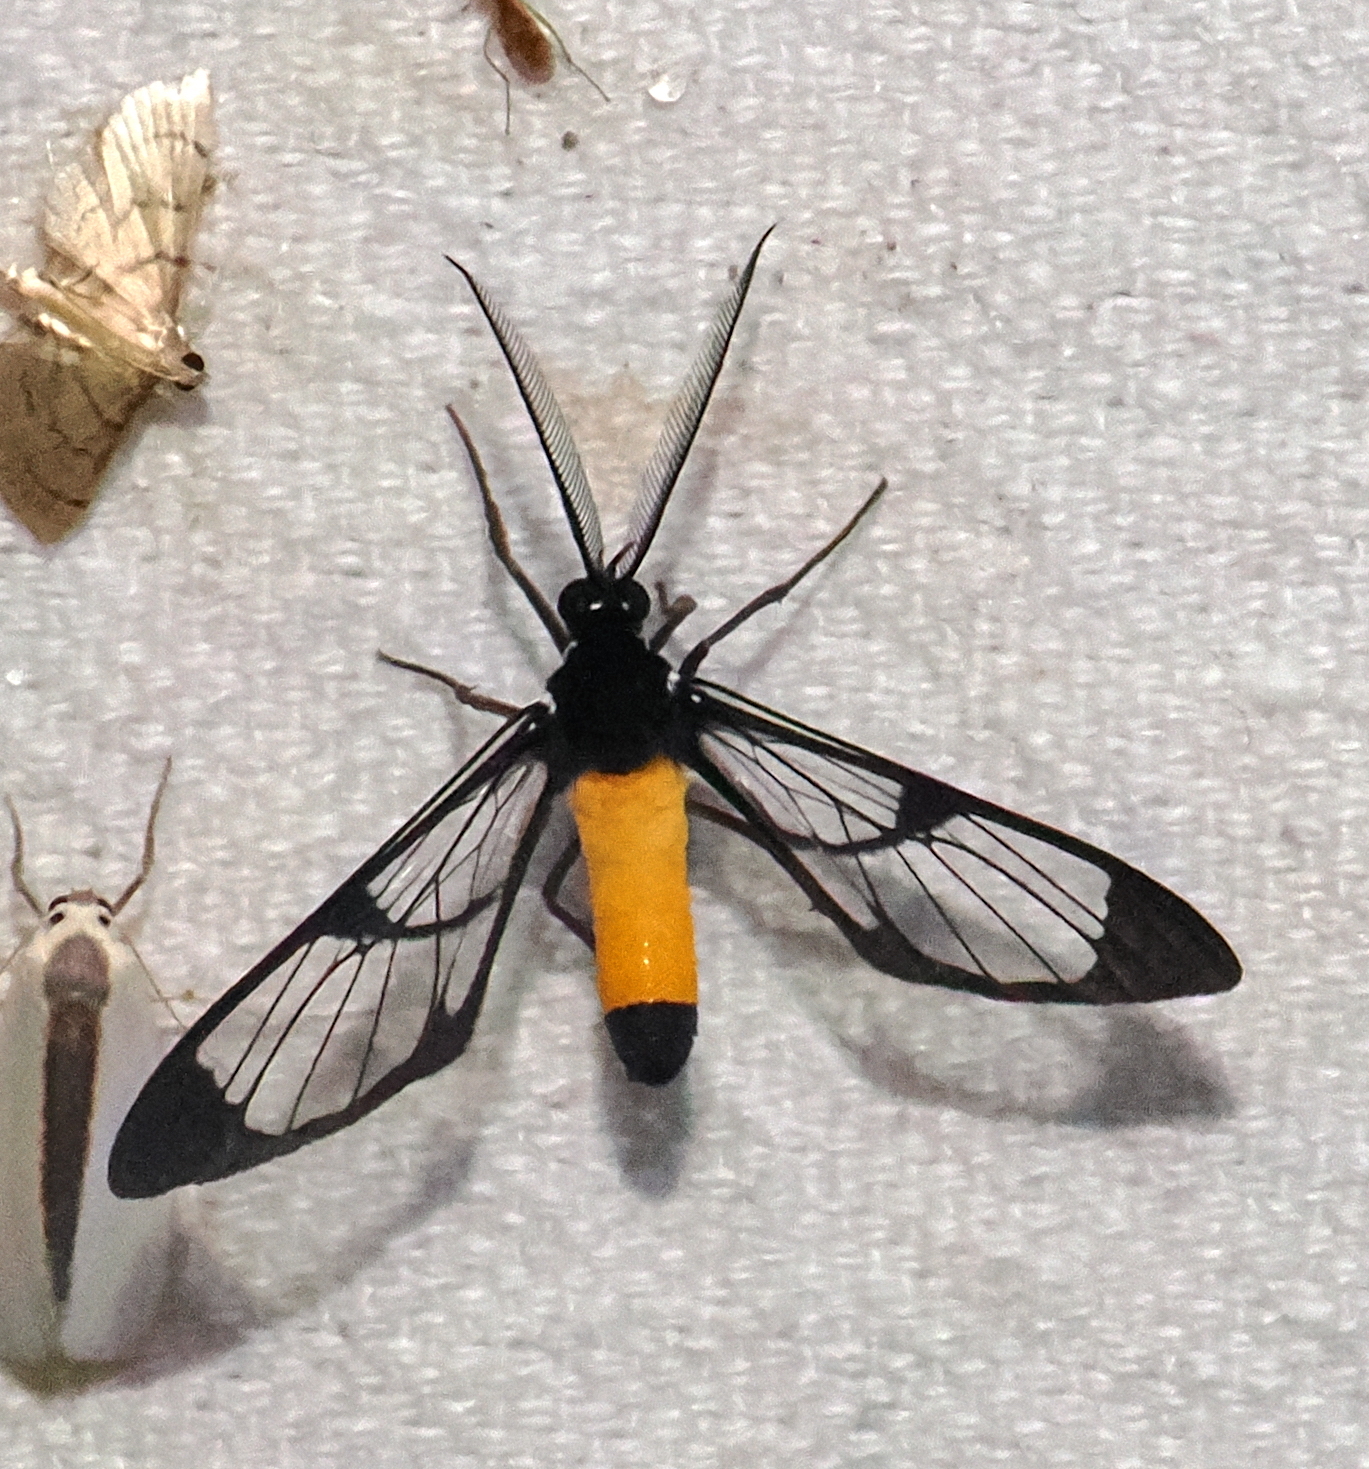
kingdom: Animalia
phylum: Arthropoda
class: Insecta
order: Lepidoptera
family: Erebidae
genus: Cosmosoma
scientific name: Cosmosoma stibosticta
